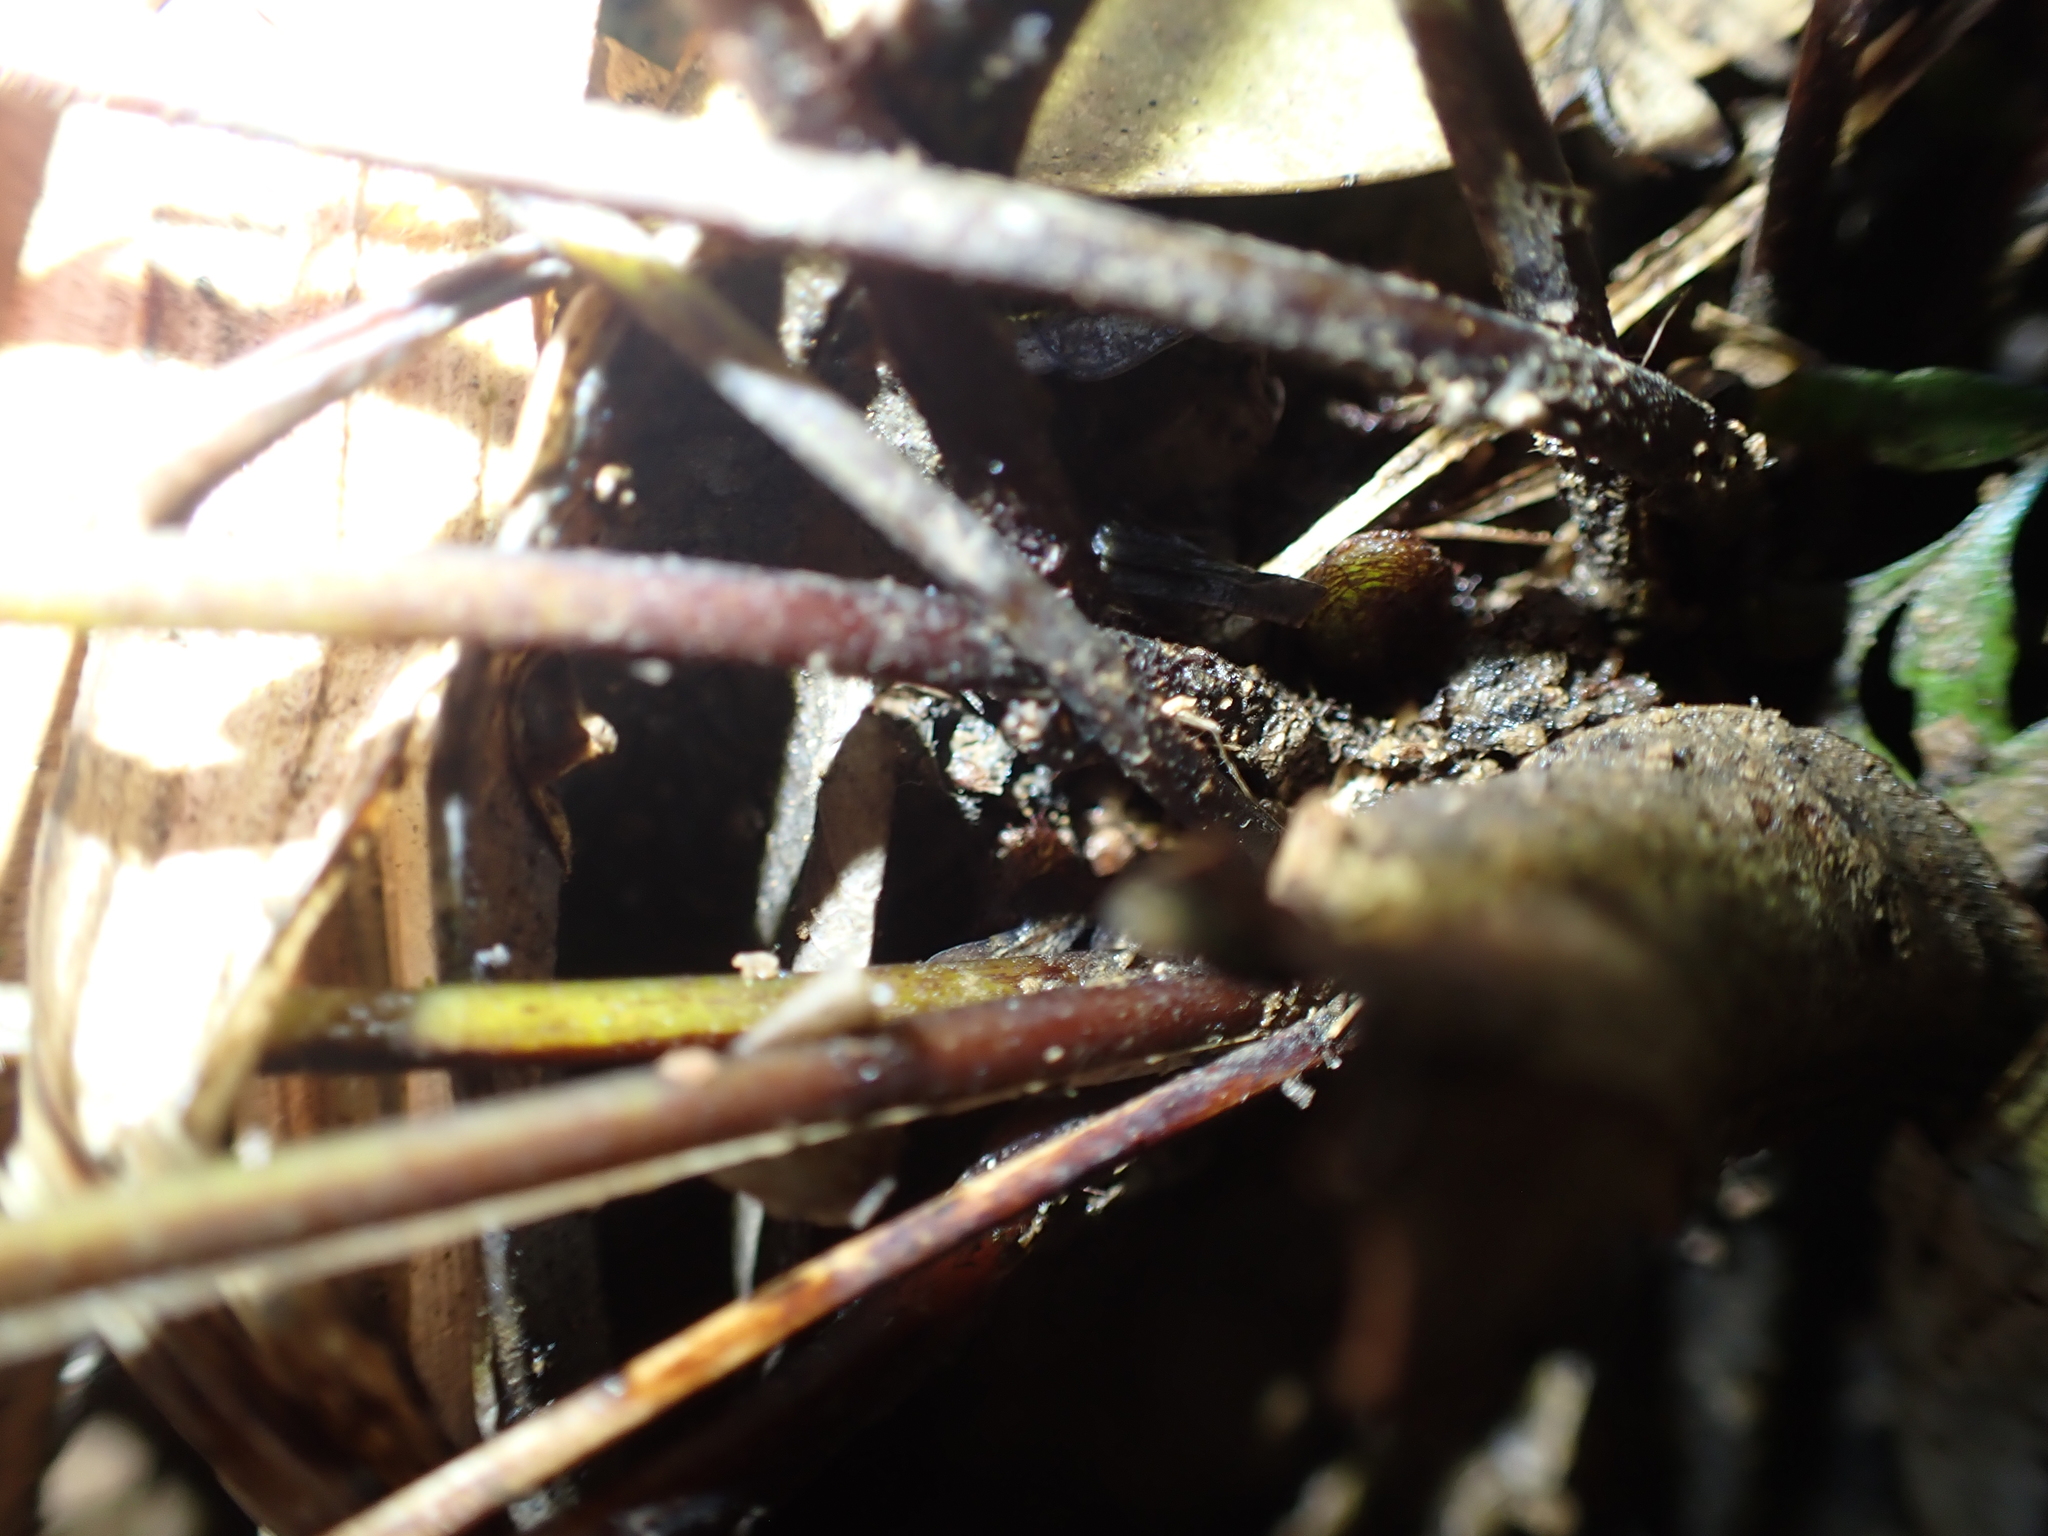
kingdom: Plantae
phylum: Tracheophyta
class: Polypodiopsida
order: Polypodiales
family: Lindsaeaceae
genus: Tapeinidium
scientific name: Tapeinidium biserratum
